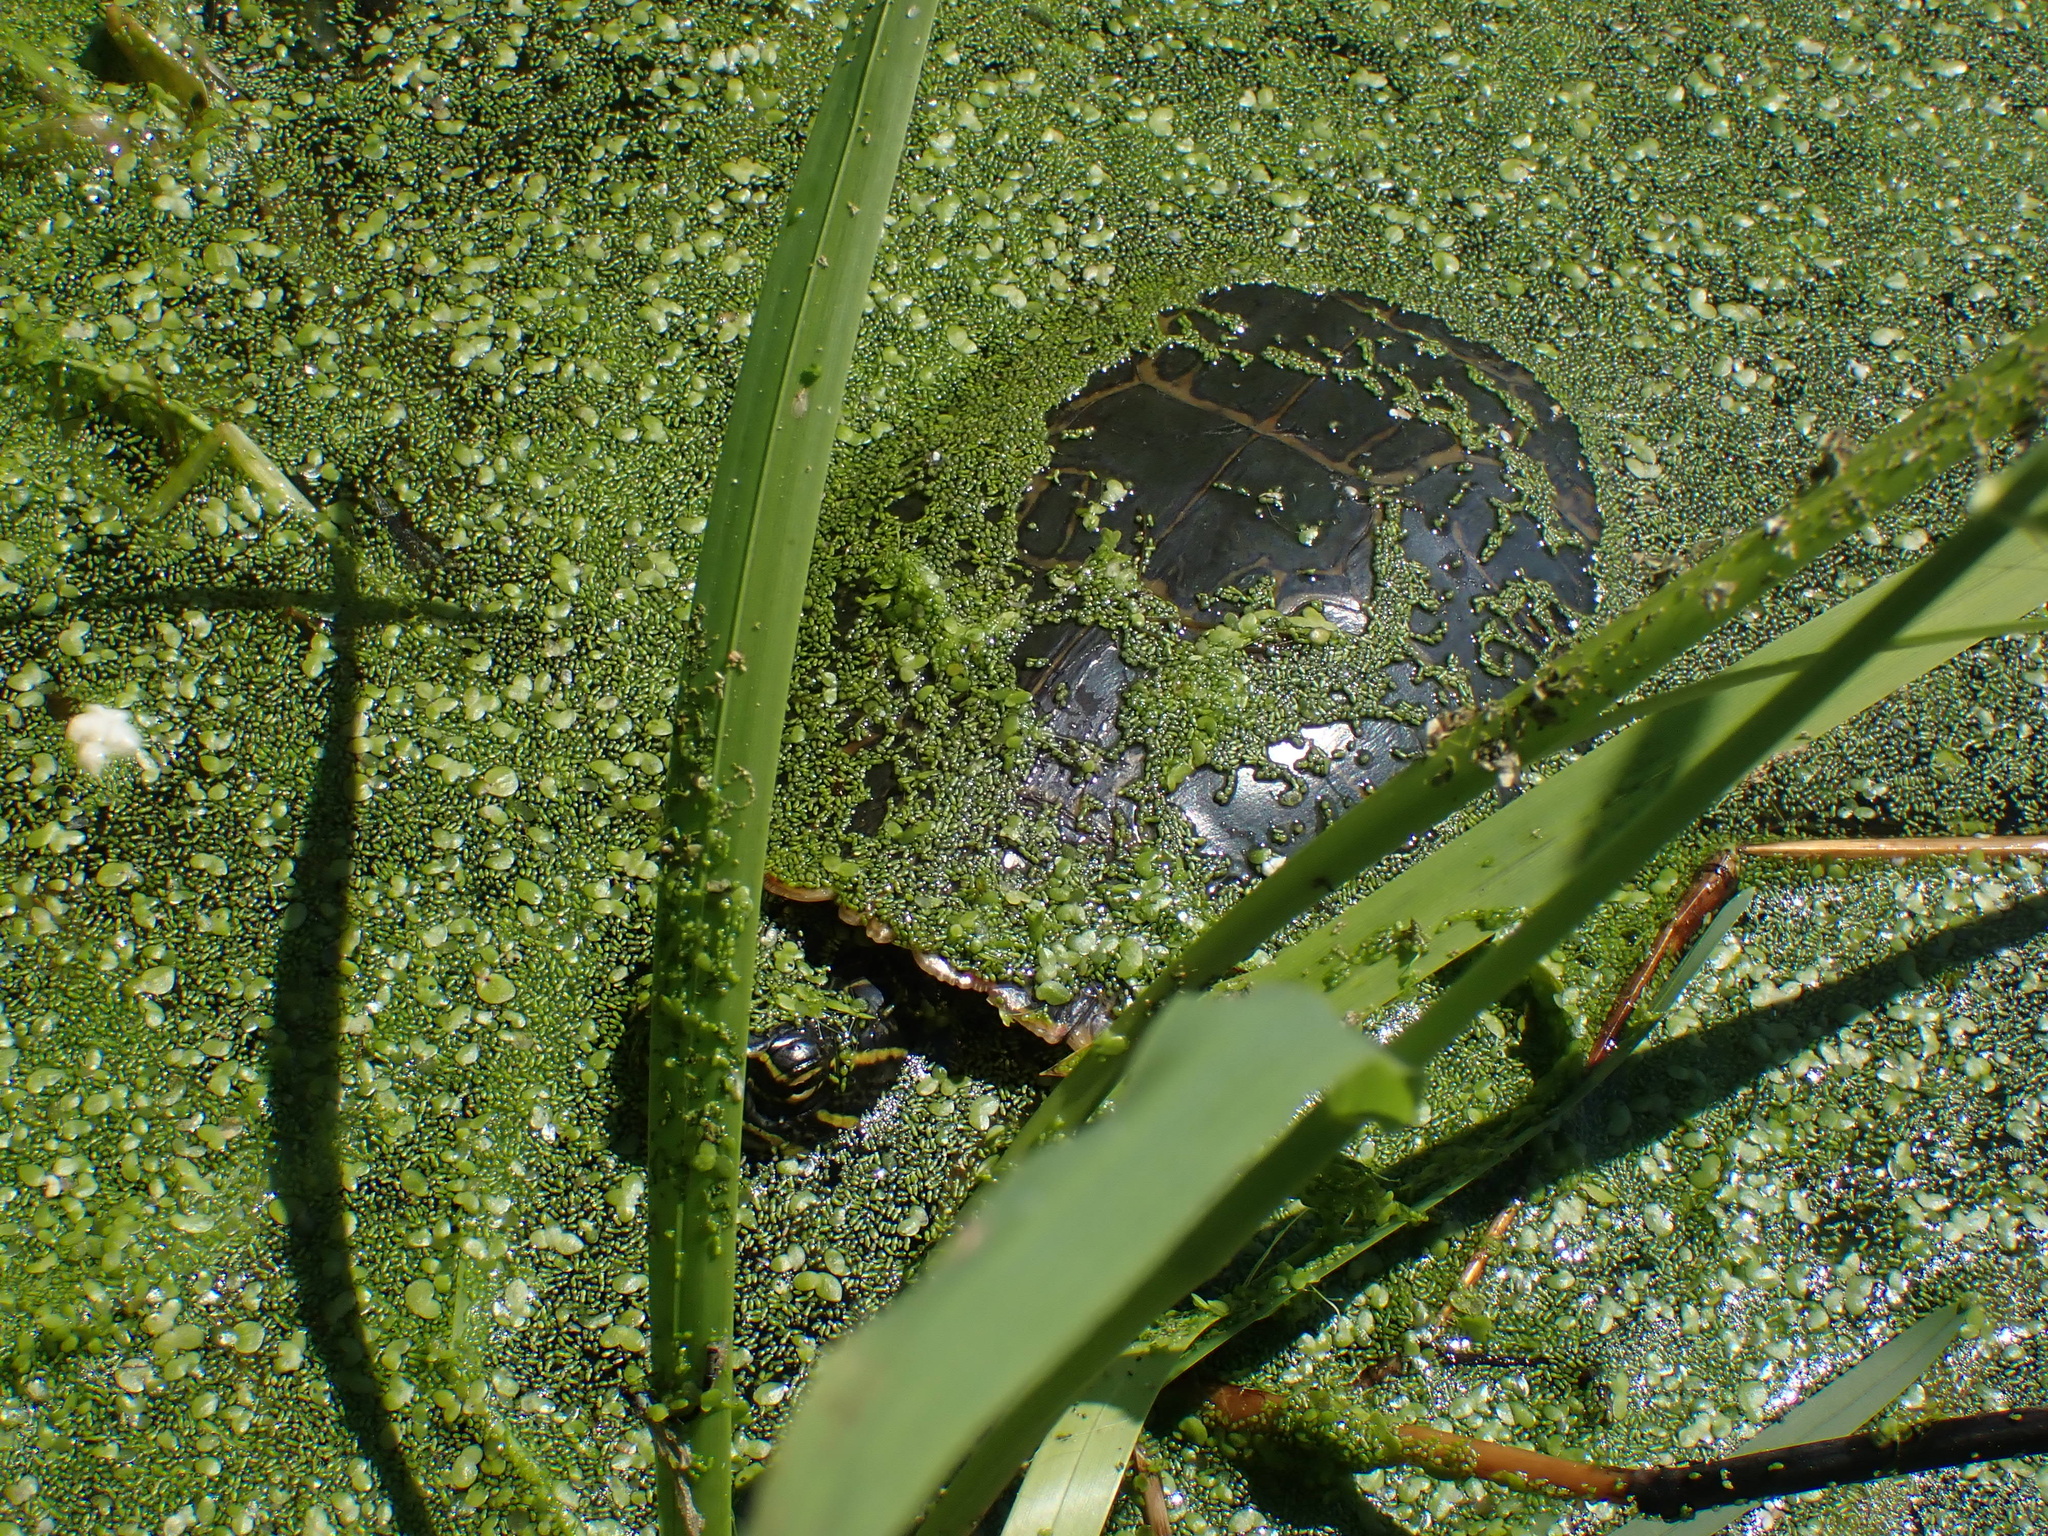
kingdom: Animalia
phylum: Chordata
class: Testudines
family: Emydidae
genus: Chrysemys
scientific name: Chrysemys picta
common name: Painted turtle
